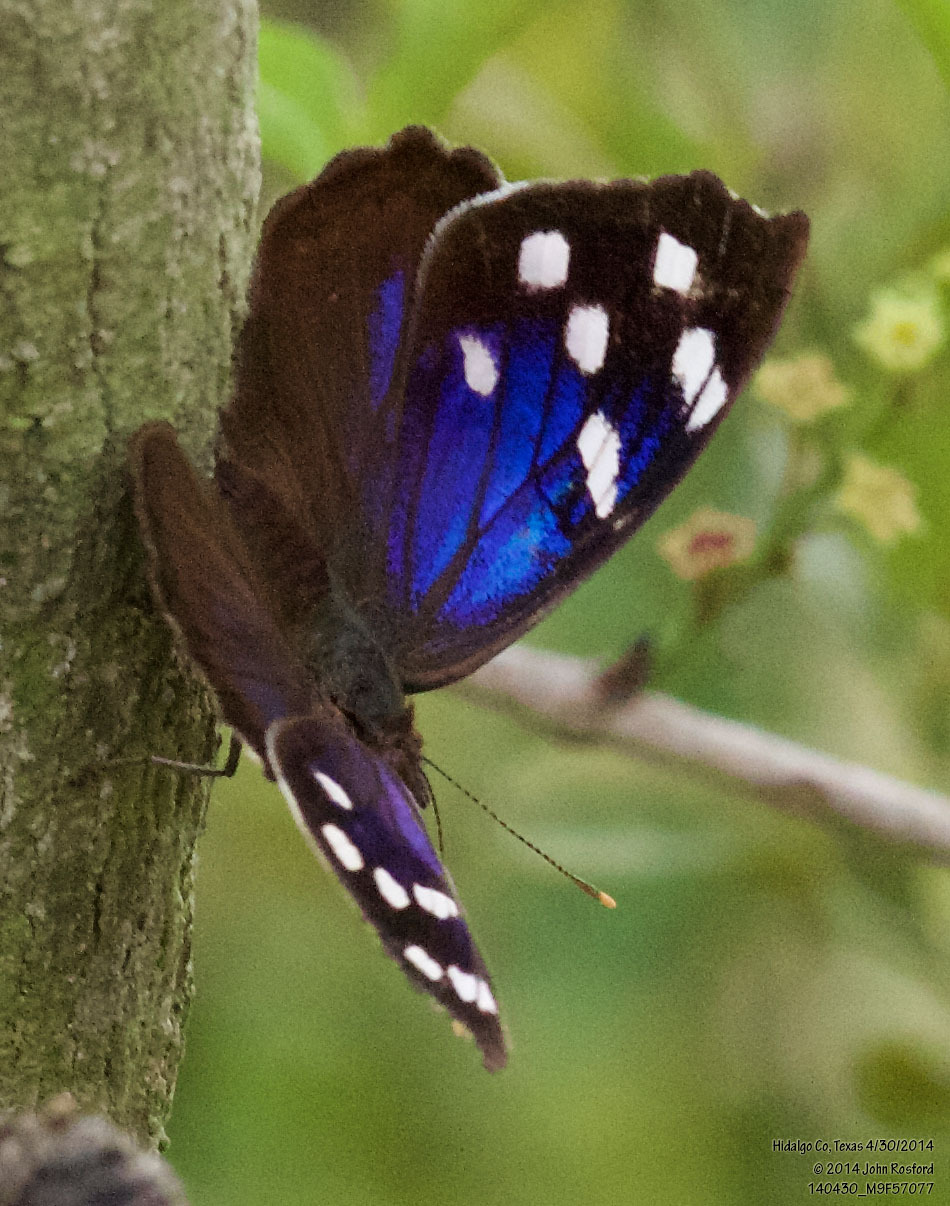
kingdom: Animalia
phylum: Arthropoda
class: Insecta
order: Lepidoptera
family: Nymphalidae
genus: Eunica
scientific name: Eunica tatila
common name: Florida purplewing
